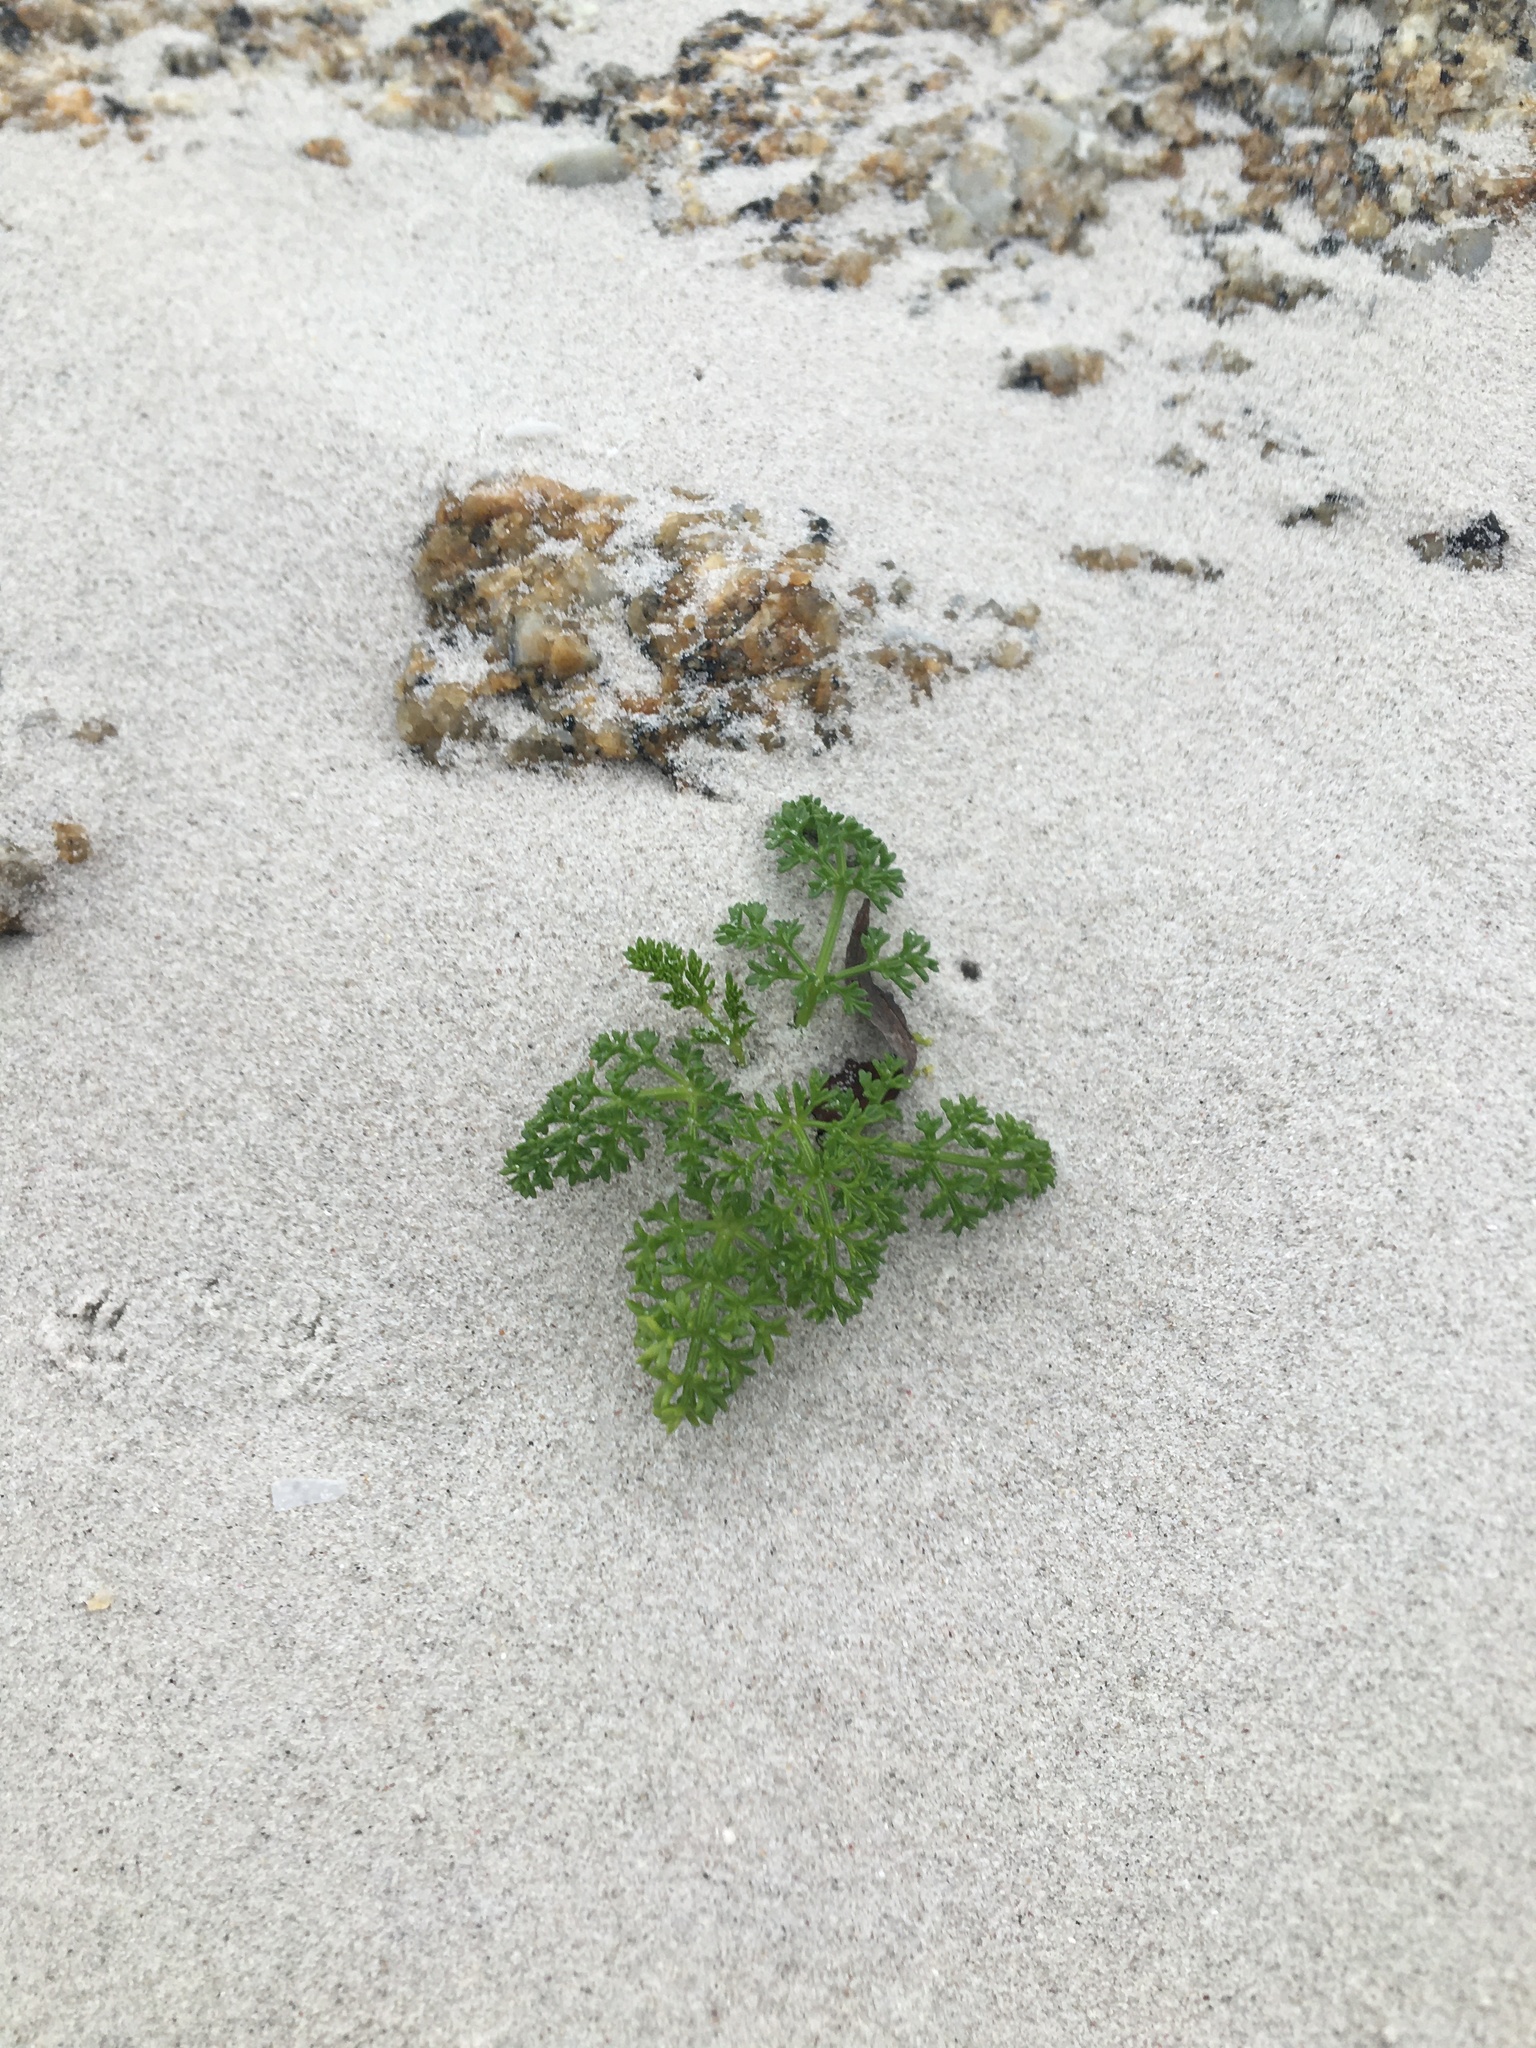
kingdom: Plantae
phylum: Tracheophyta
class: Magnoliopsida
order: Apiales
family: Apiaceae
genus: Dasispermum
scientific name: Dasispermum suffruticosum
